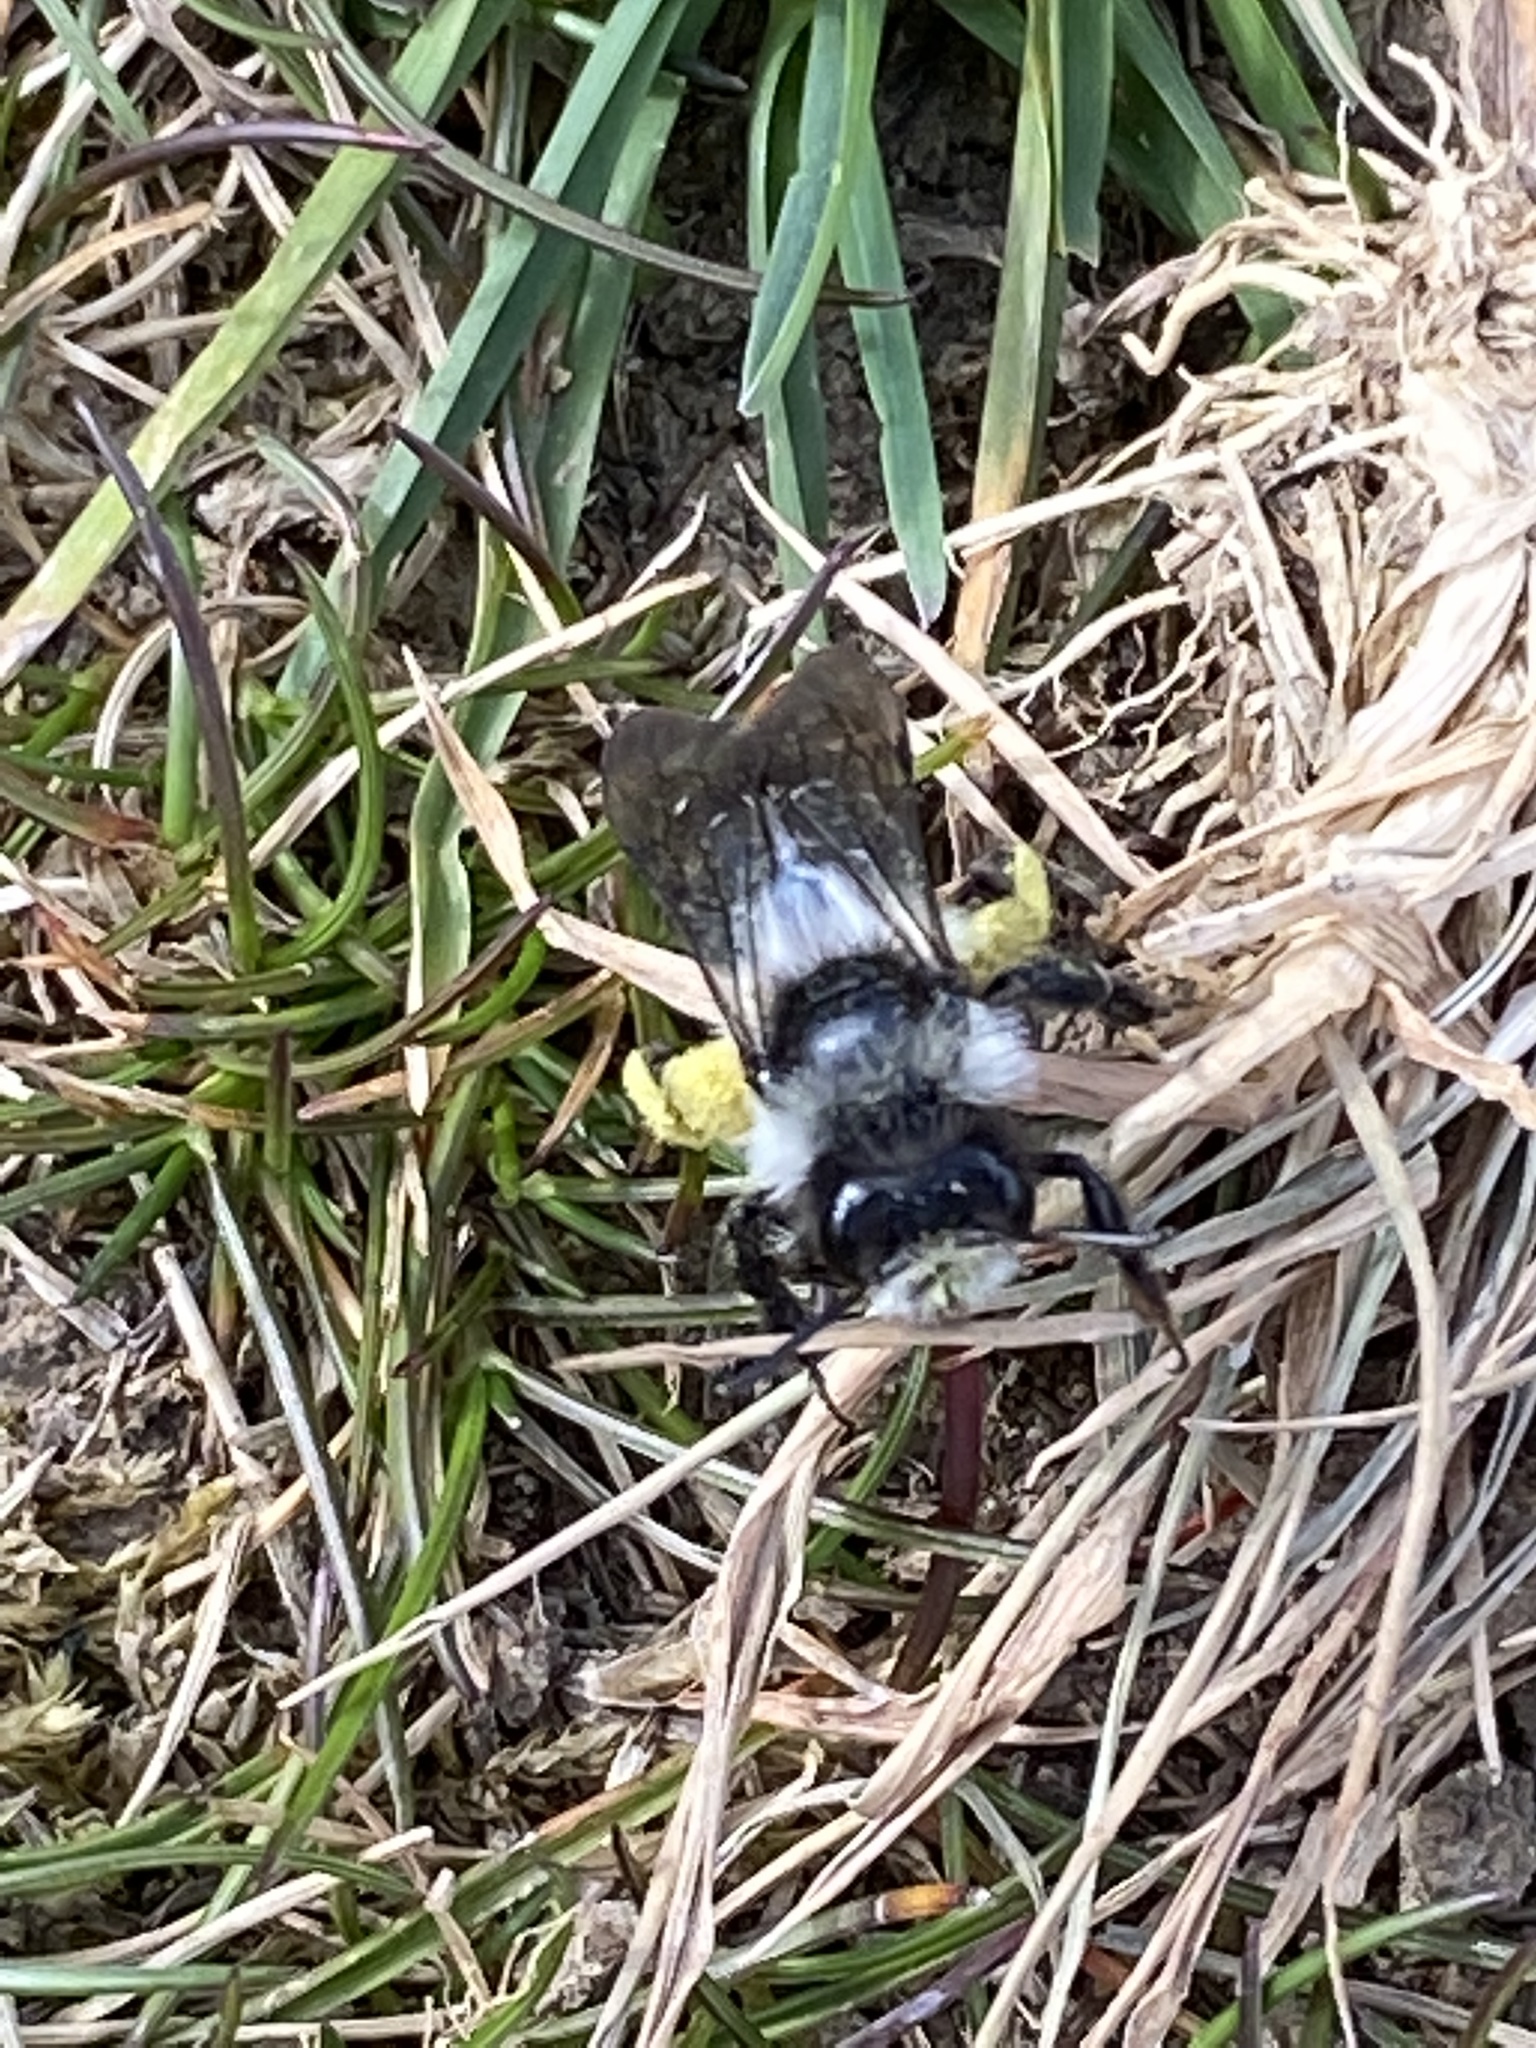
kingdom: Animalia
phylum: Arthropoda
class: Insecta
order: Hymenoptera
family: Andrenidae
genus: Andrena
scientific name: Andrena cineraria
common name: Ashy mining bee
